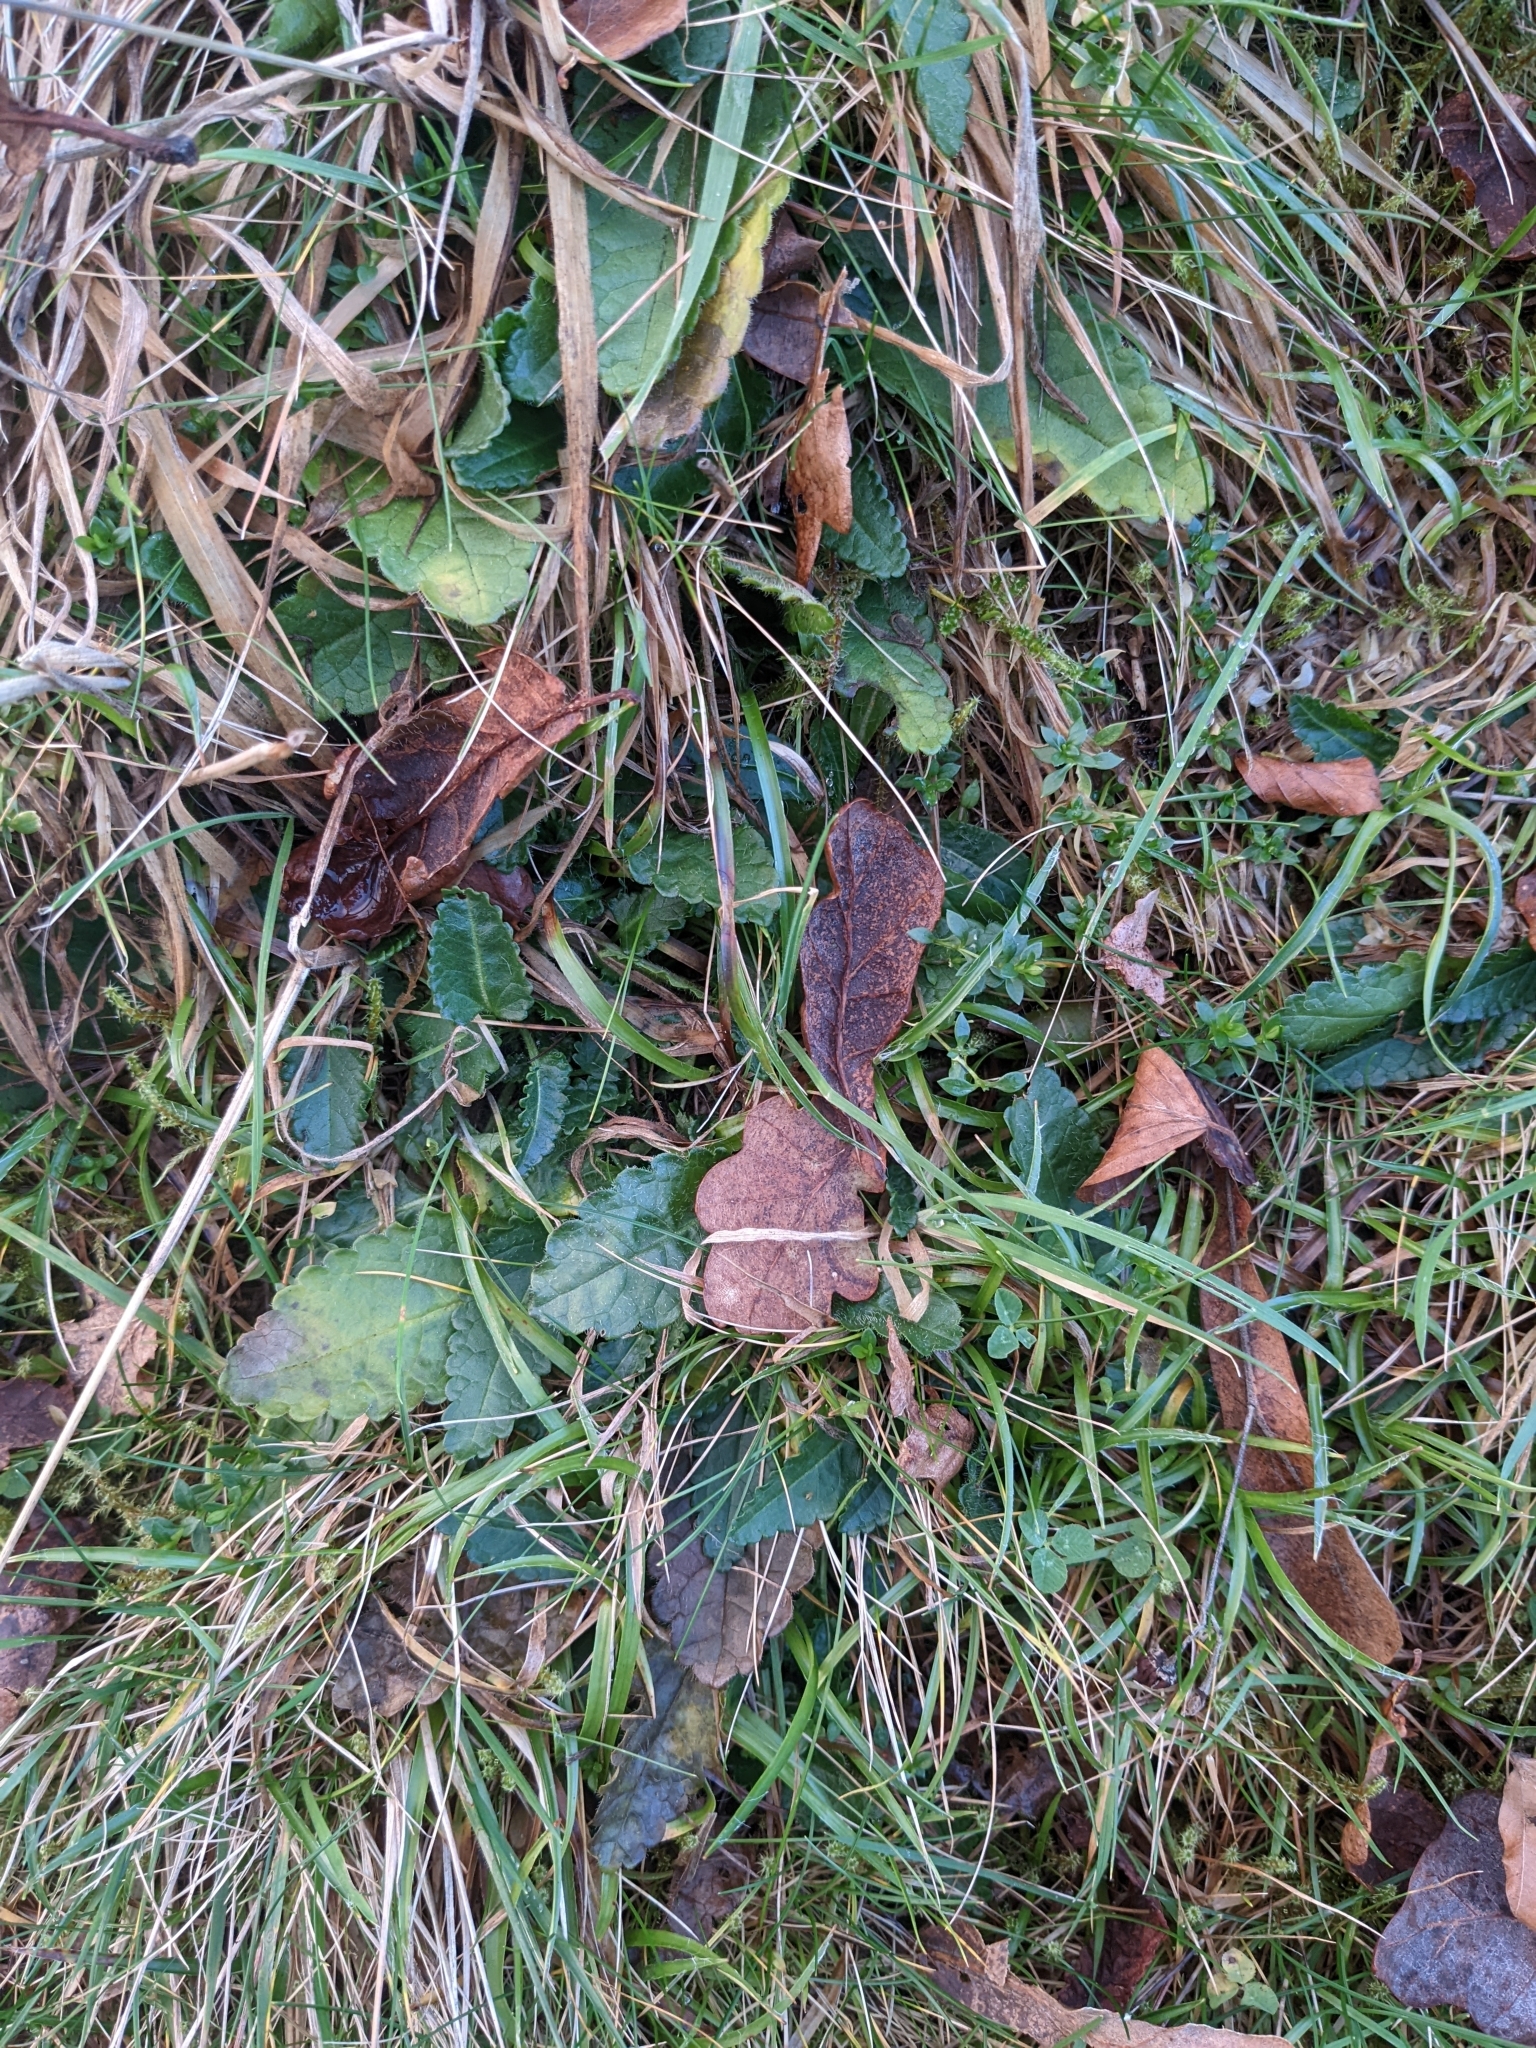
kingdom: Plantae
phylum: Tracheophyta
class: Magnoliopsida
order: Lamiales
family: Lamiaceae
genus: Betonica
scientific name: Betonica officinalis
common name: Bishop's-wort
